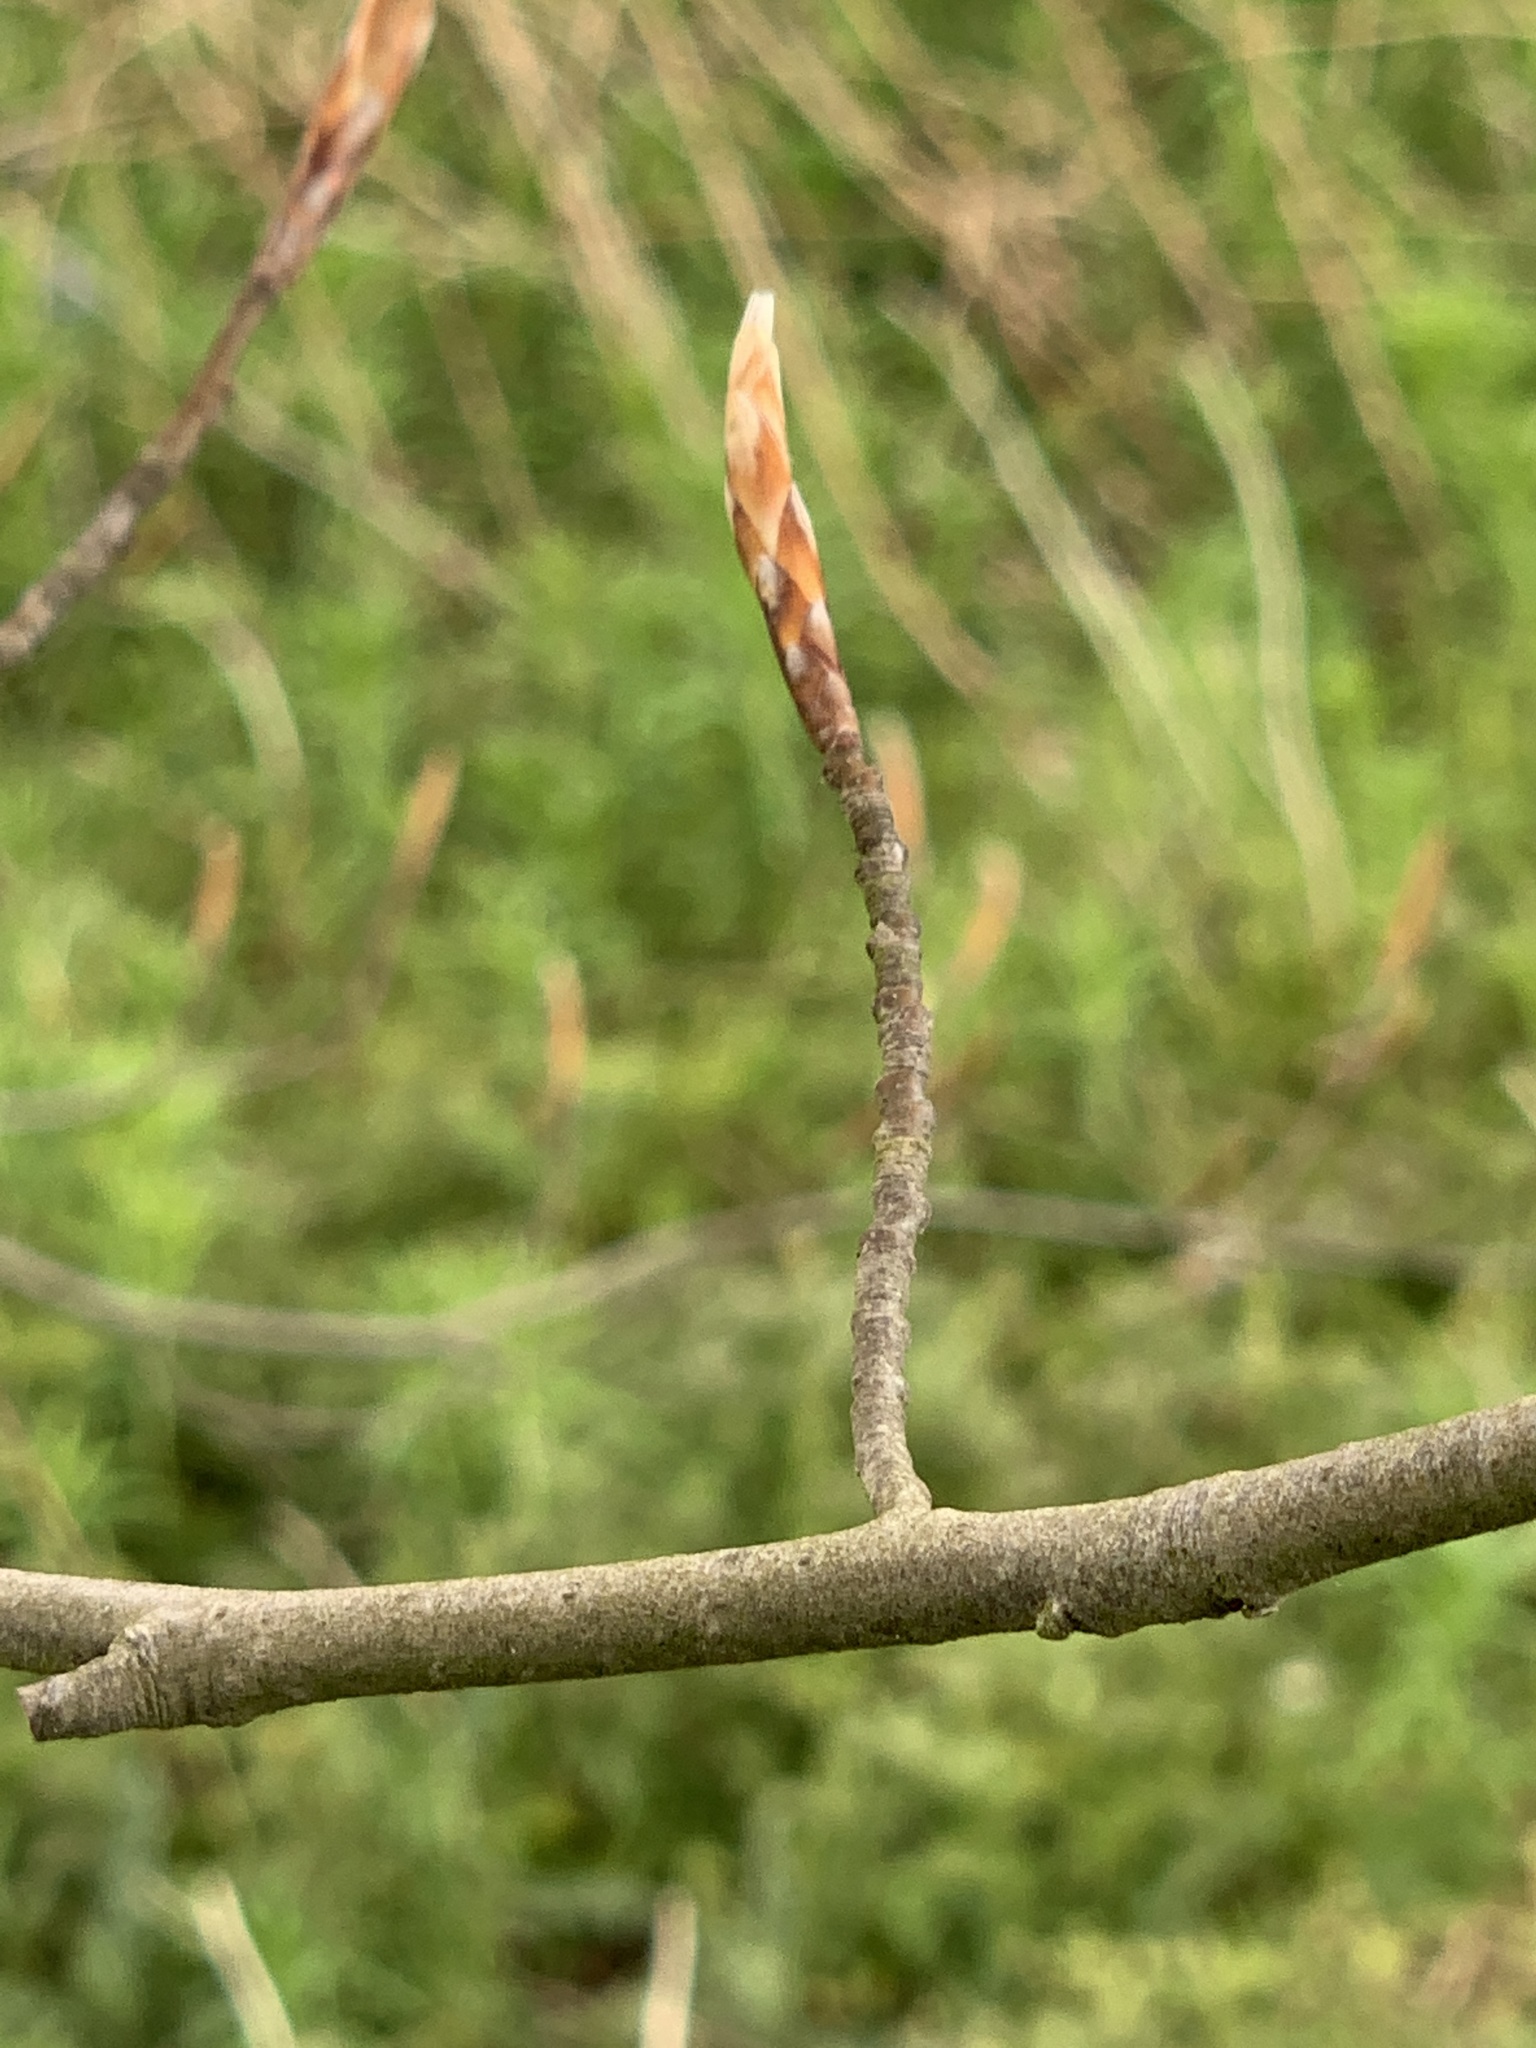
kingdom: Plantae
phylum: Tracheophyta
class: Magnoliopsida
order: Fagales
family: Fagaceae
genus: Fagus
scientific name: Fagus sylvatica
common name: Beech
